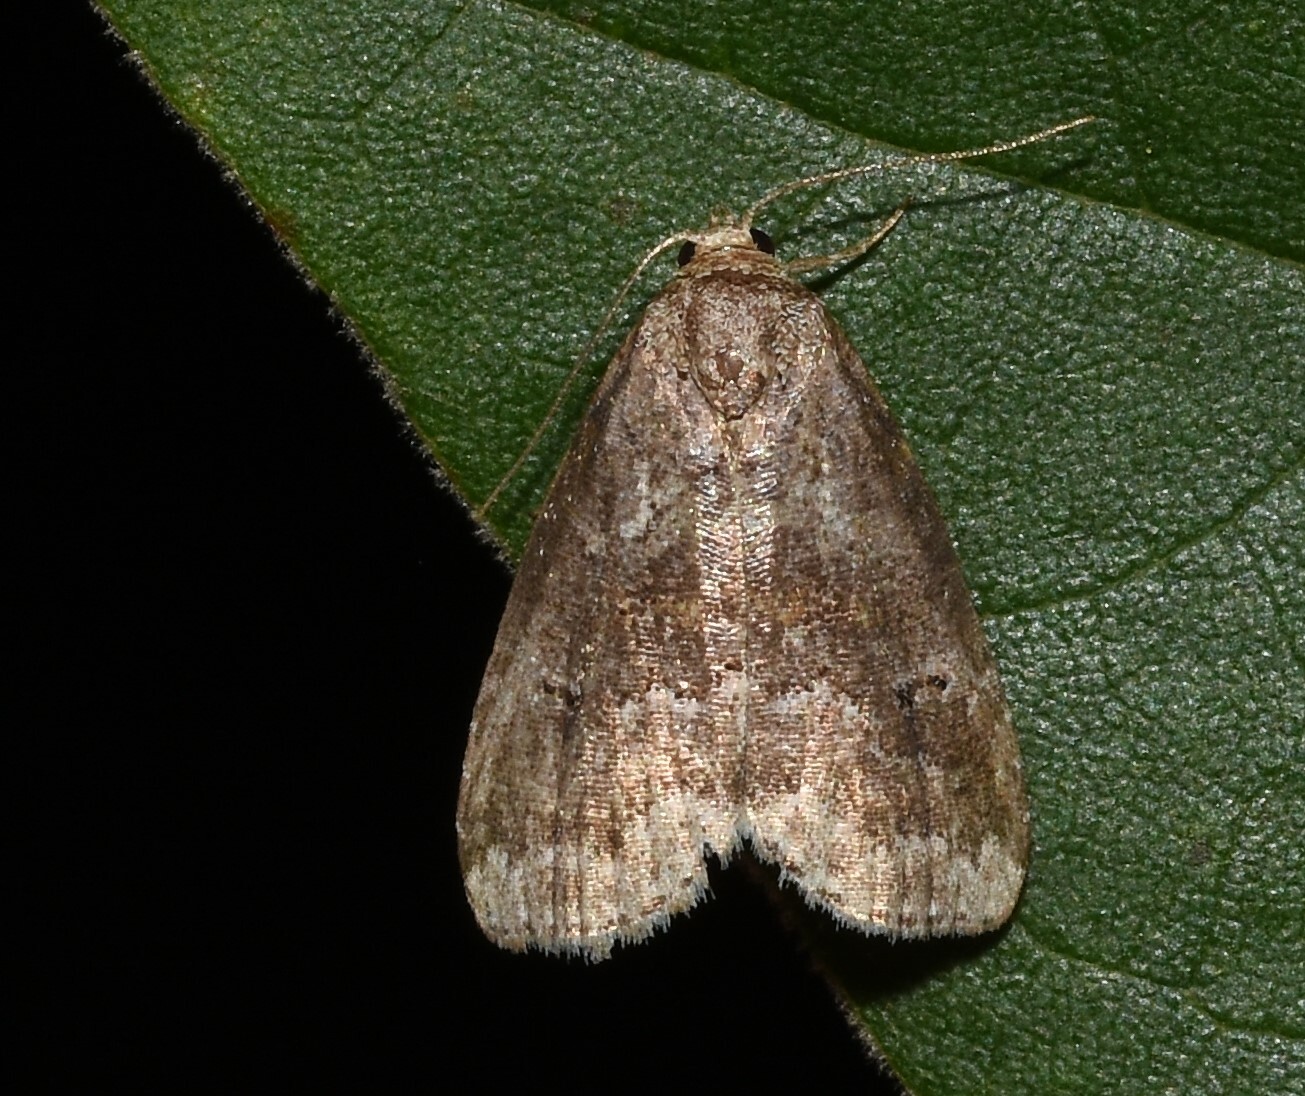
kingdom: Animalia
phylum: Arthropoda
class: Insecta
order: Lepidoptera
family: Erebidae
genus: Hyperstrotia
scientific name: Hyperstrotia nana
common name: White-lined graylet
